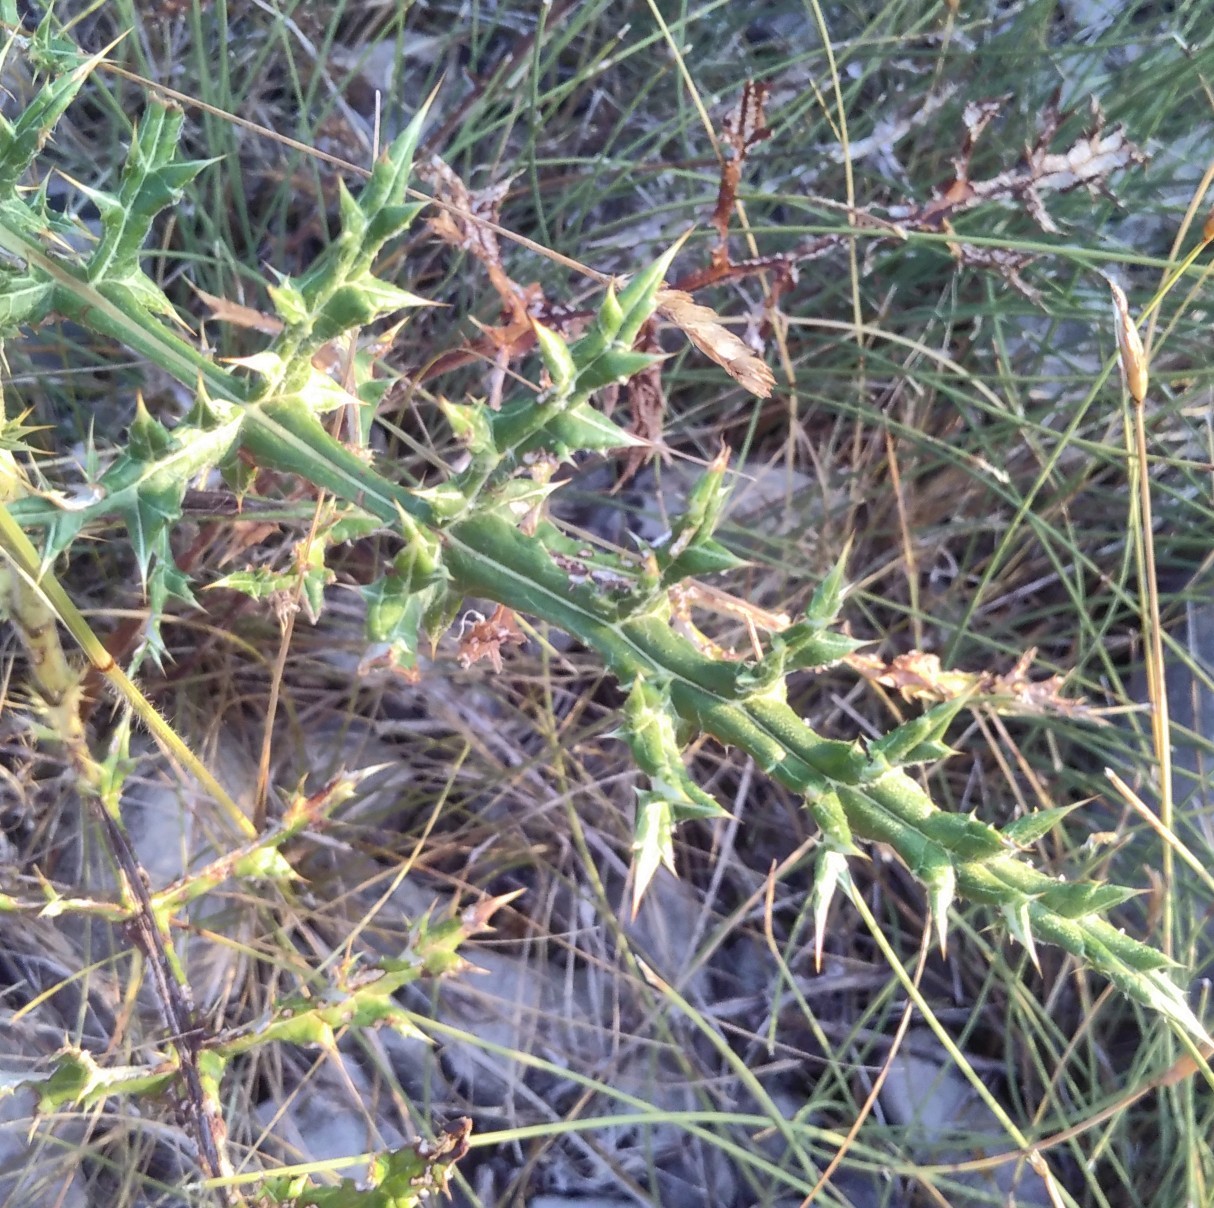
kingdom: Plantae
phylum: Tracheophyta
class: Magnoliopsida
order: Asterales
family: Asteraceae
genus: Echinops
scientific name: Echinops ritro
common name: Globe thistle
